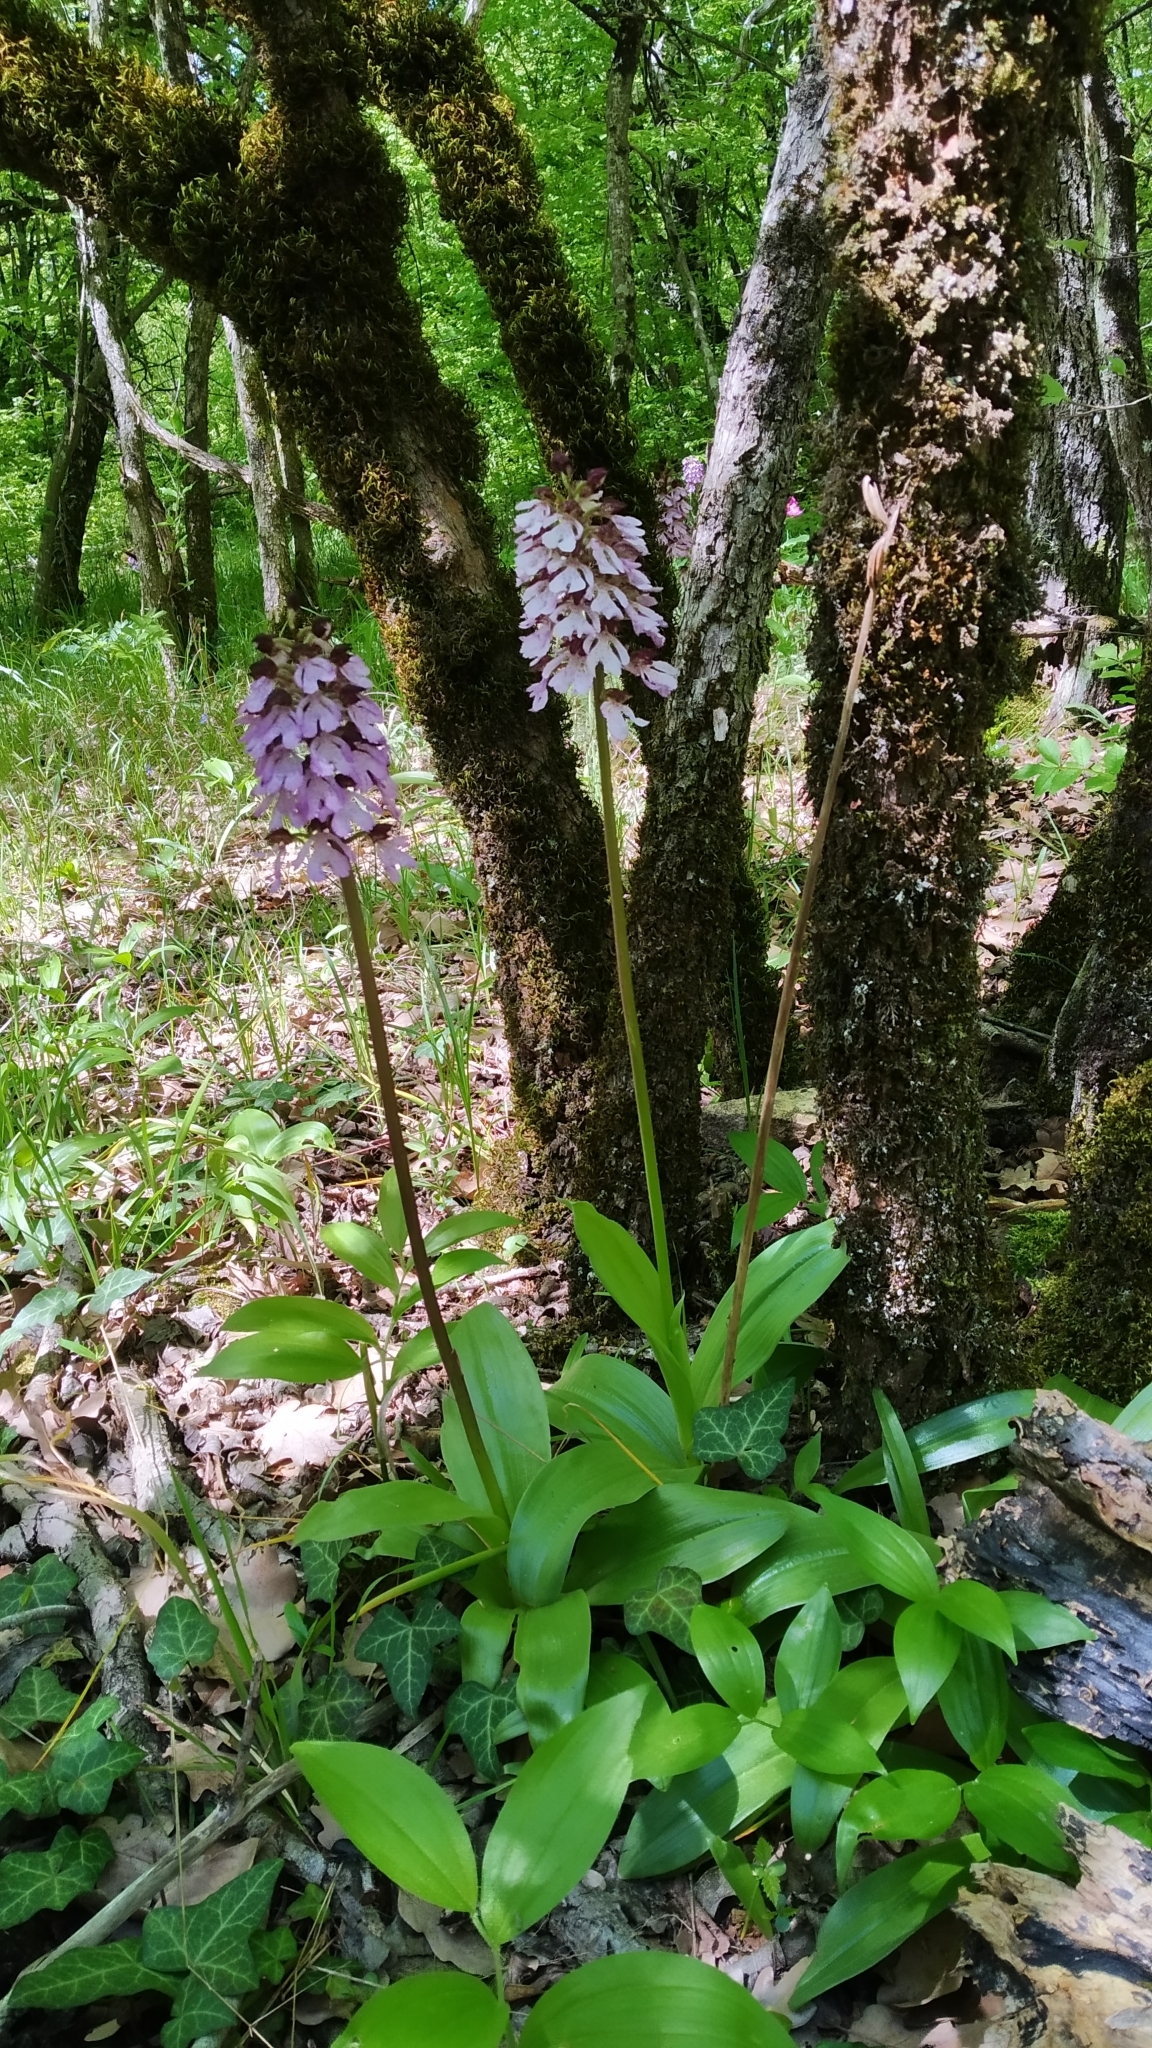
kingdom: Plantae
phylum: Tracheophyta
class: Liliopsida
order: Asparagales
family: Orchidaceae
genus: Orchis
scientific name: Orchis purpurea
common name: Lady orchid
